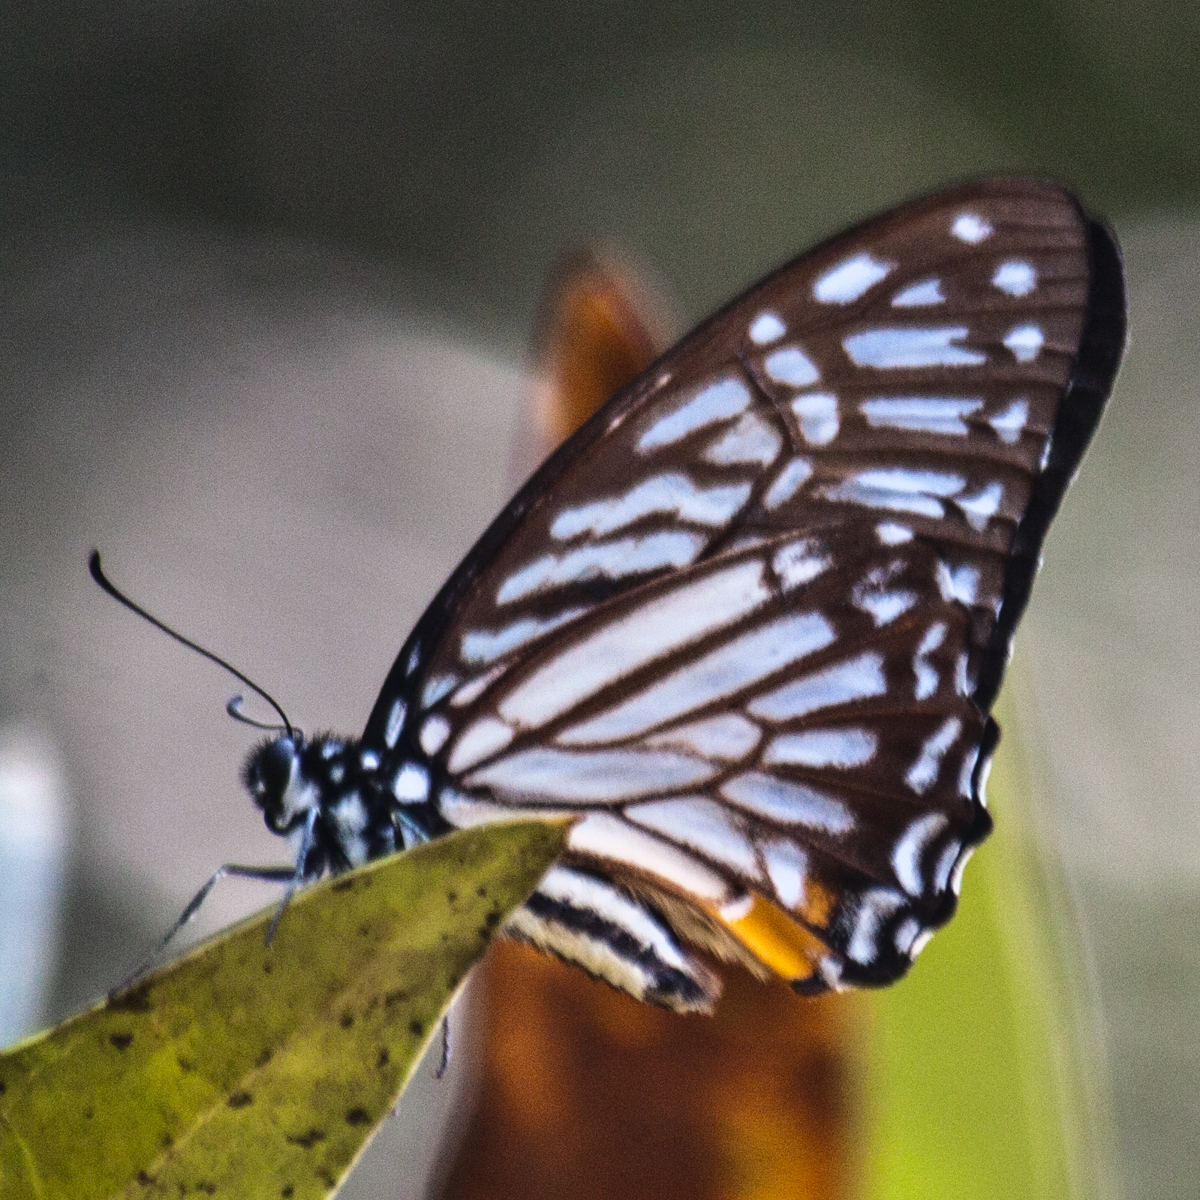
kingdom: Animalia
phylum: Arthropoda
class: Insecta
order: Lepidoptera
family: Papilionidae
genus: Graphium
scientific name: Graphium xenocles
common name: Great zebra
